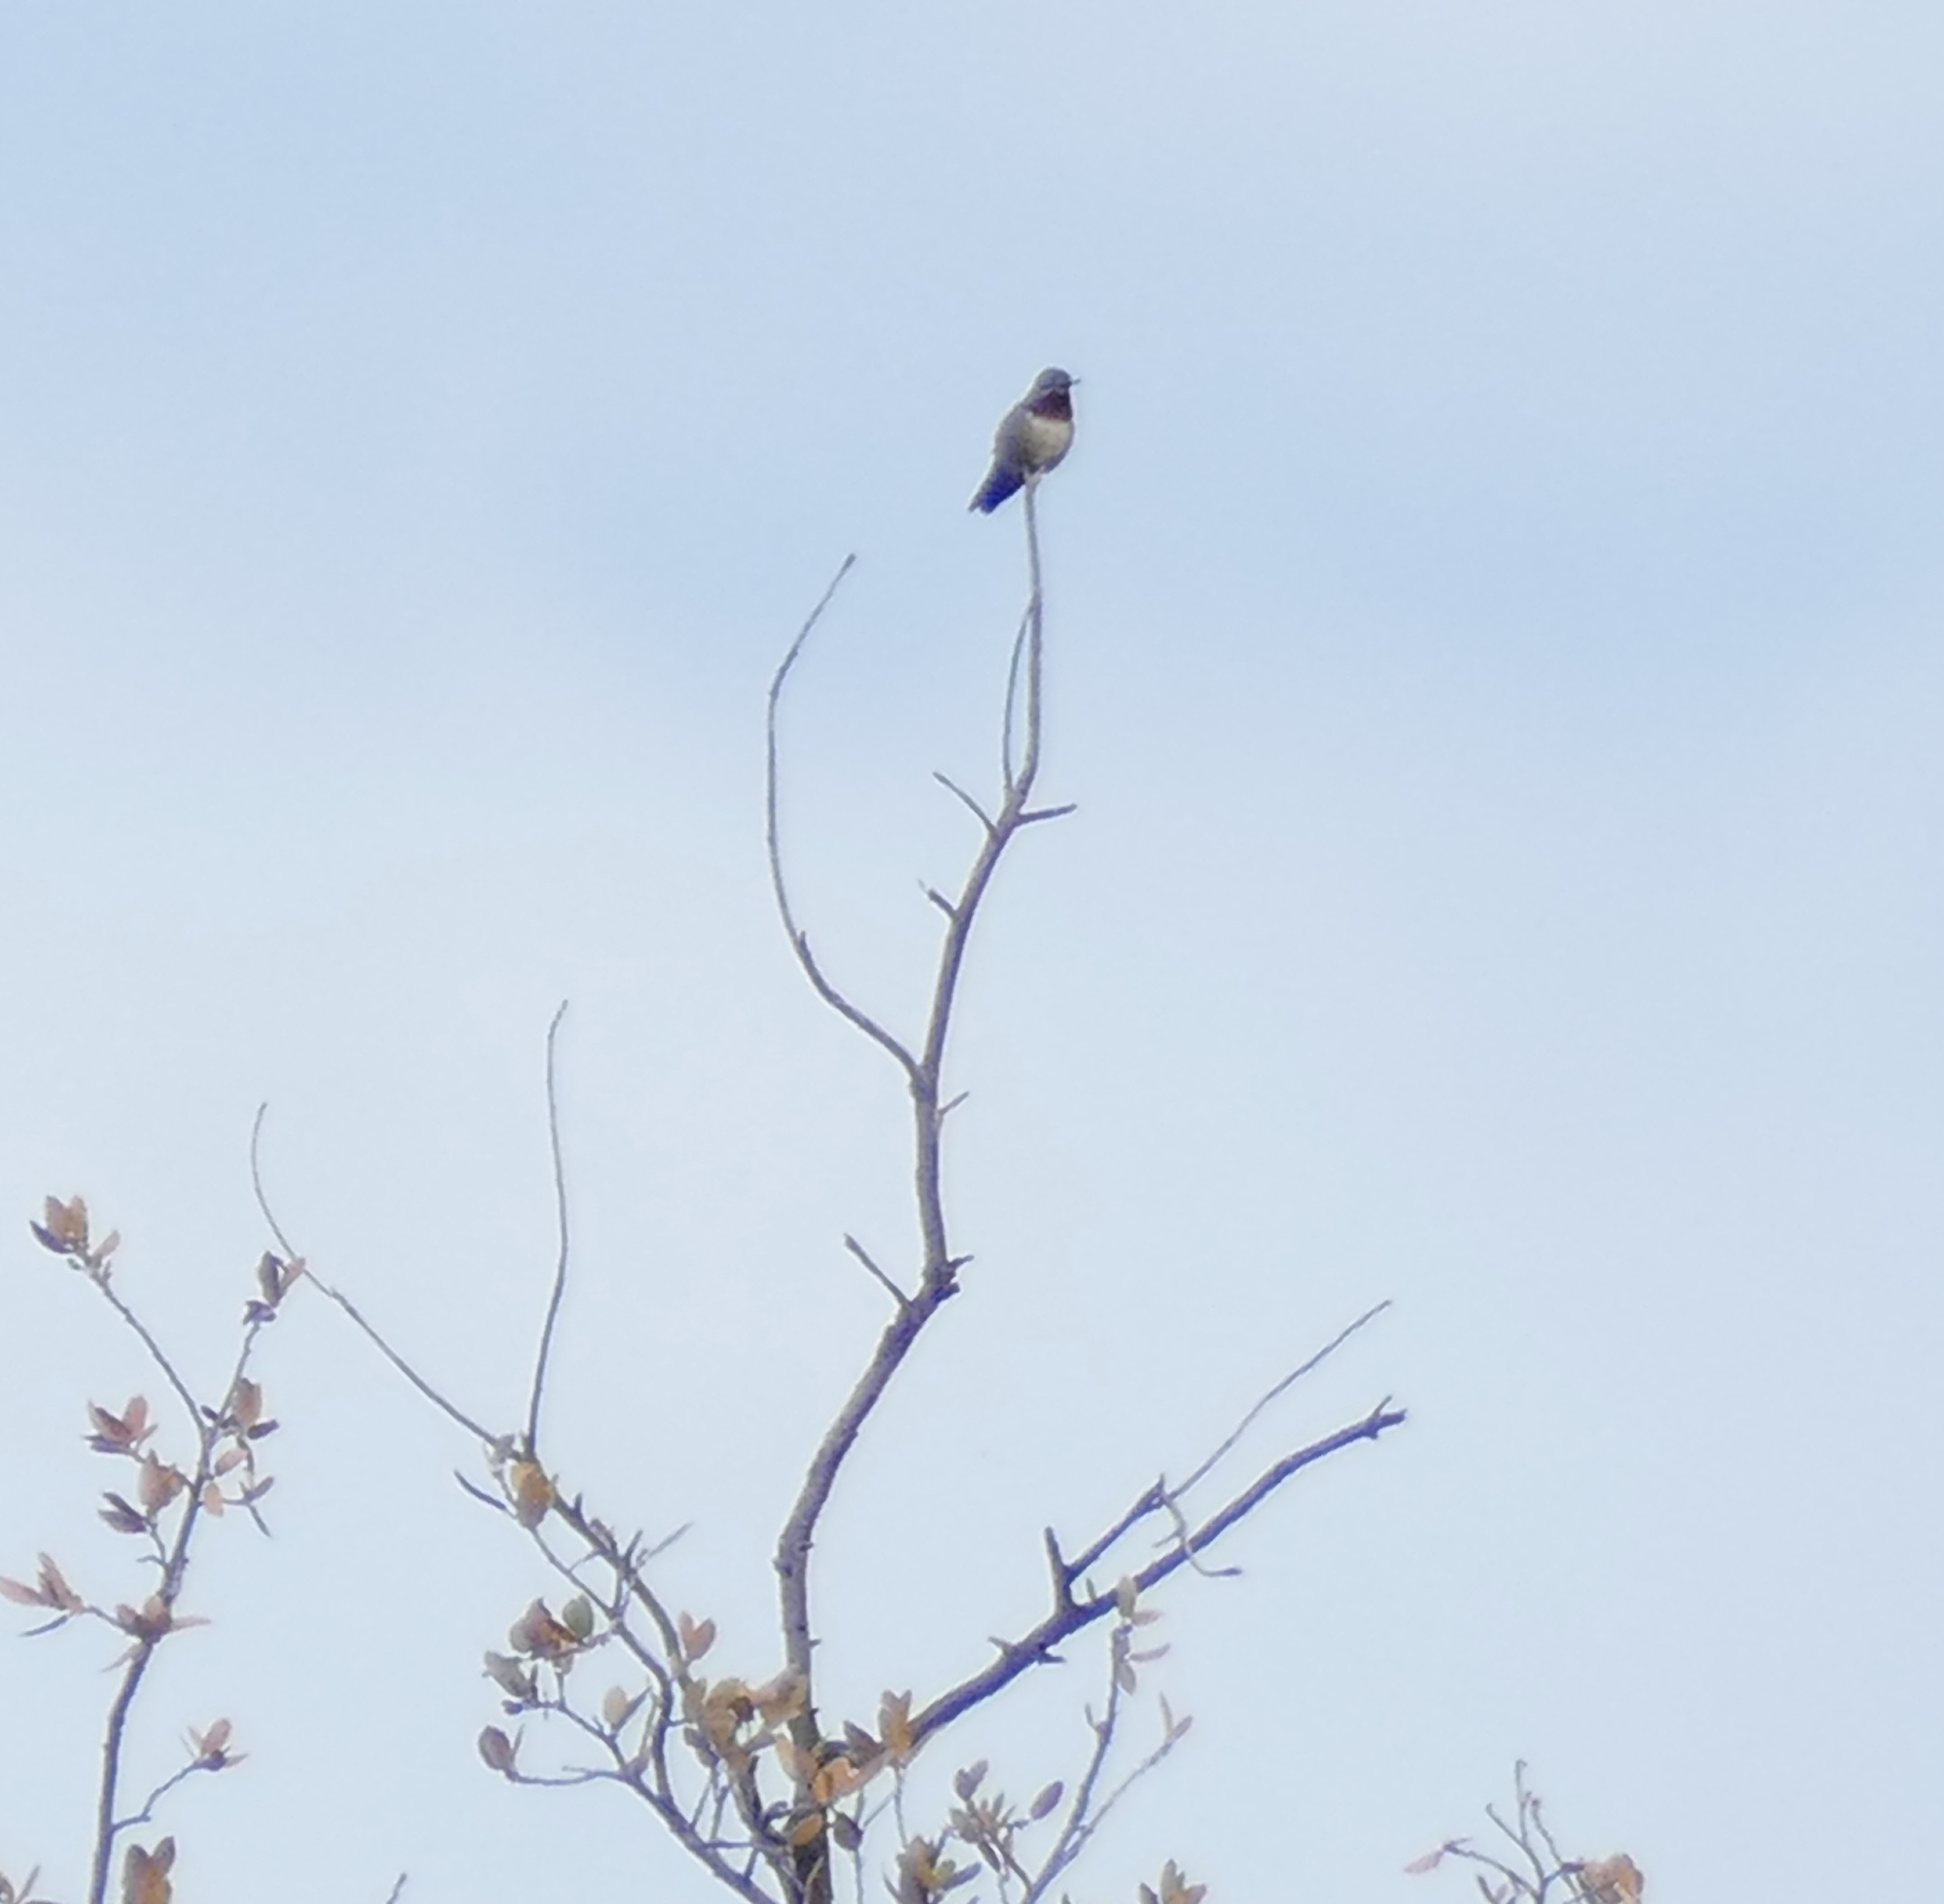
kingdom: Animalia
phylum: Chordata
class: Aves
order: Apodiformes
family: Trochilidae
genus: Selasphorus
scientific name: Selasphorus platycercus
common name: Broad-tailed hummingbird
